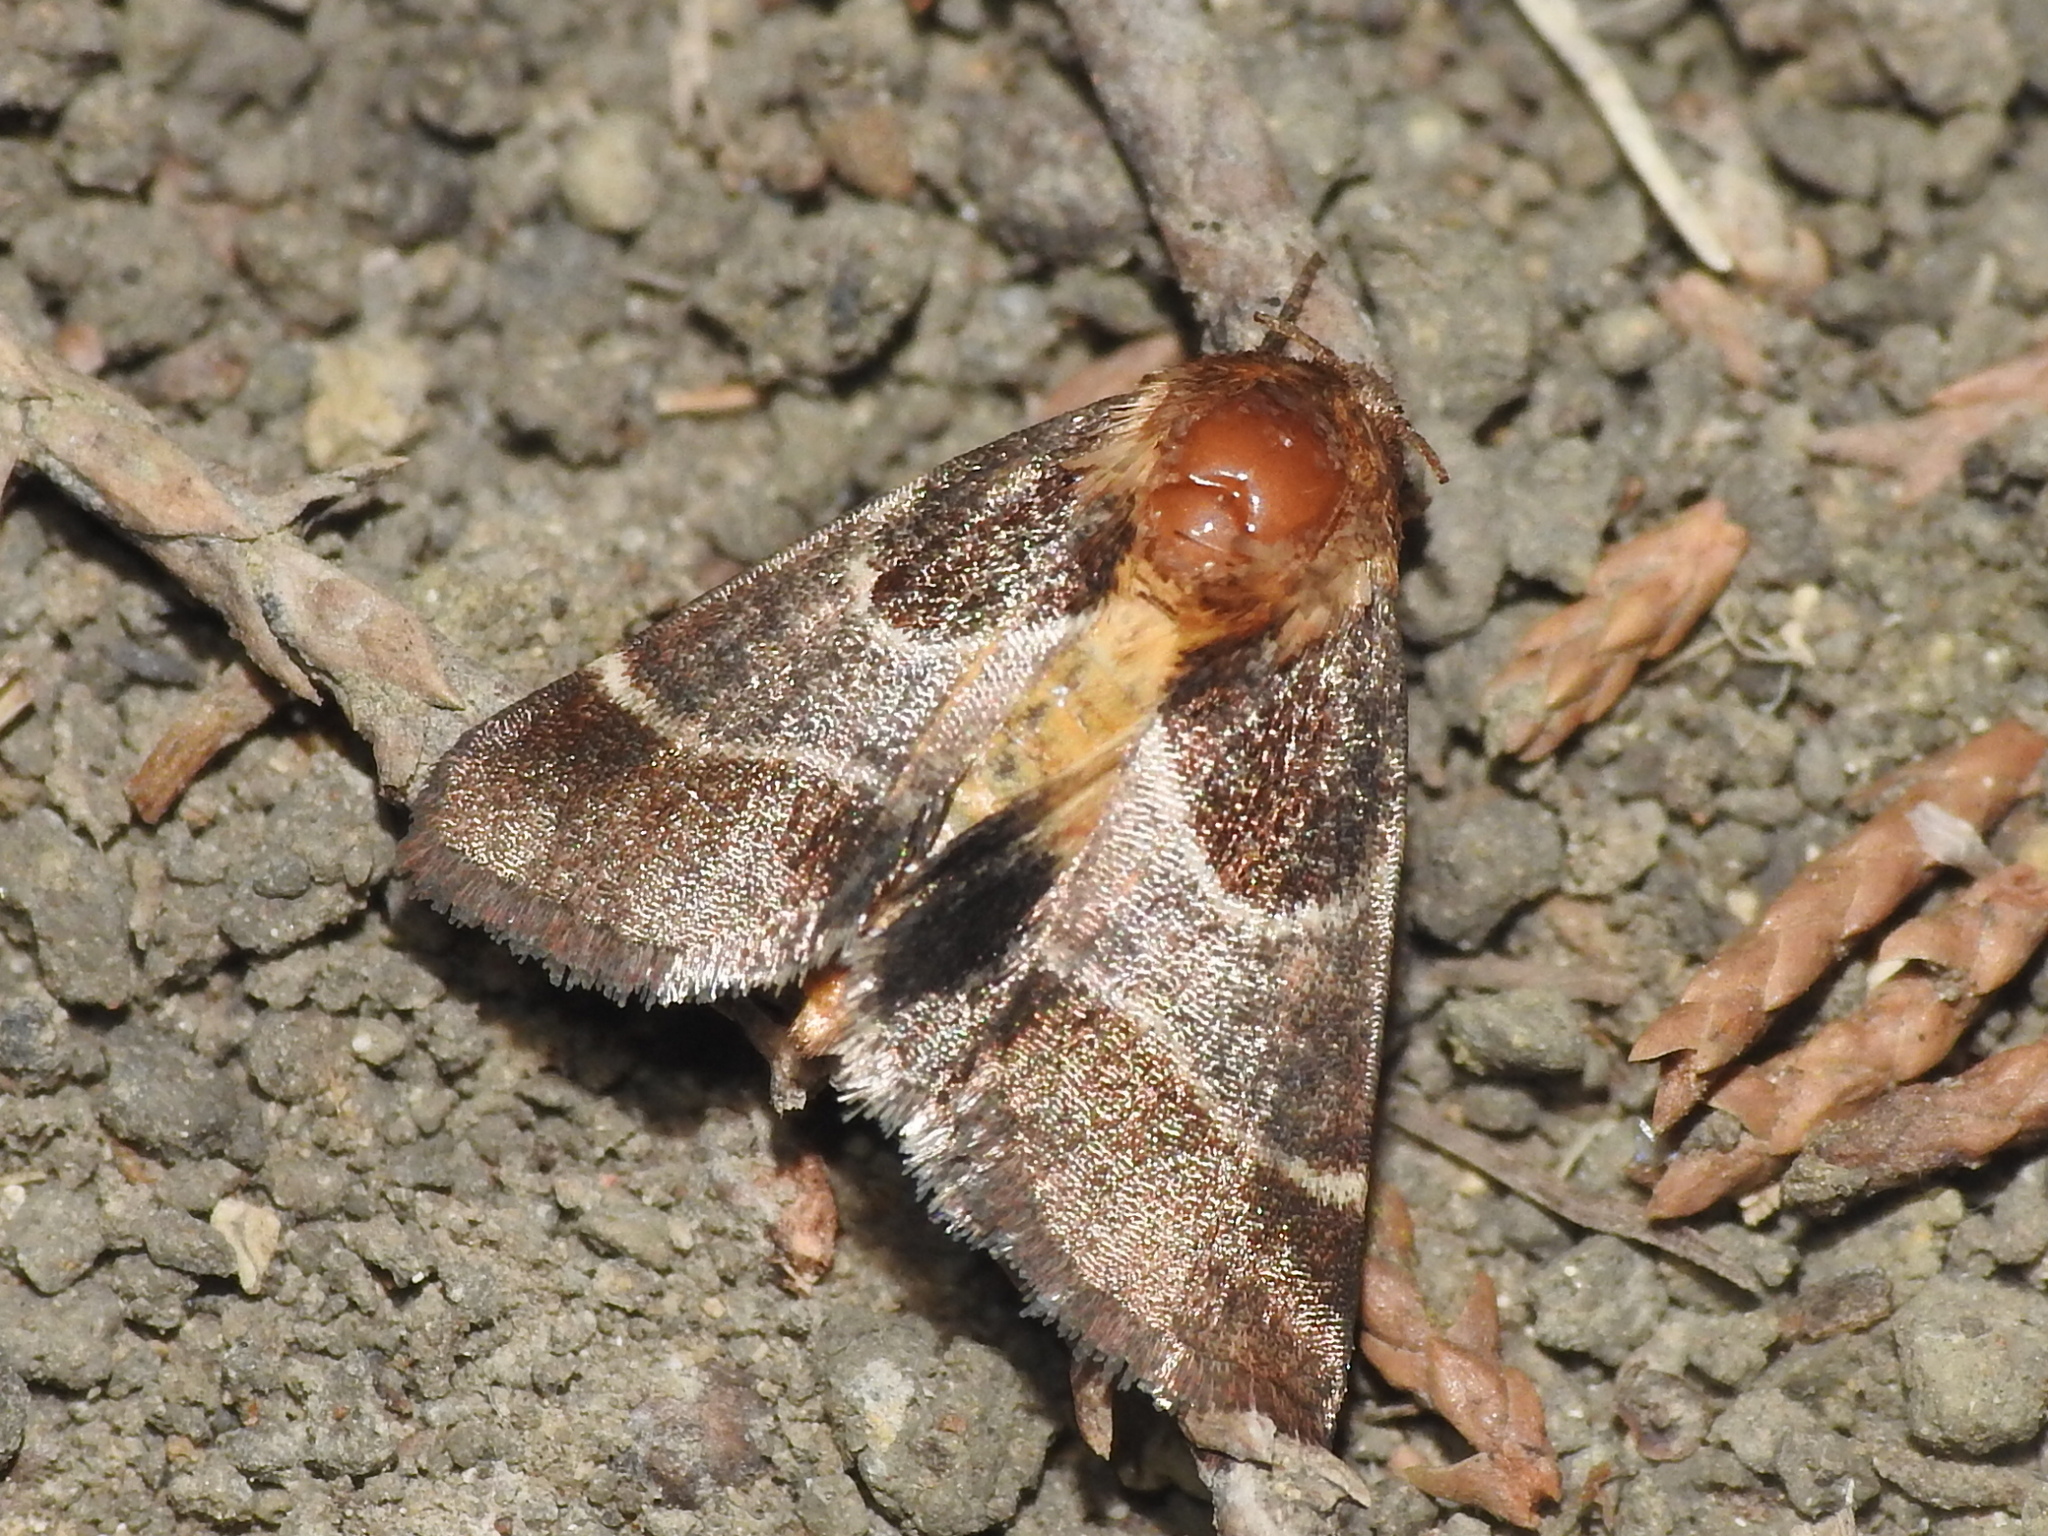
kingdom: Animalia
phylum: Arthropoda
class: Insecta
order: Lepidoptera
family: Noctuidae
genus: Schinia
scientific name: Schinia arcigera
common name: Arcigera flower moth
